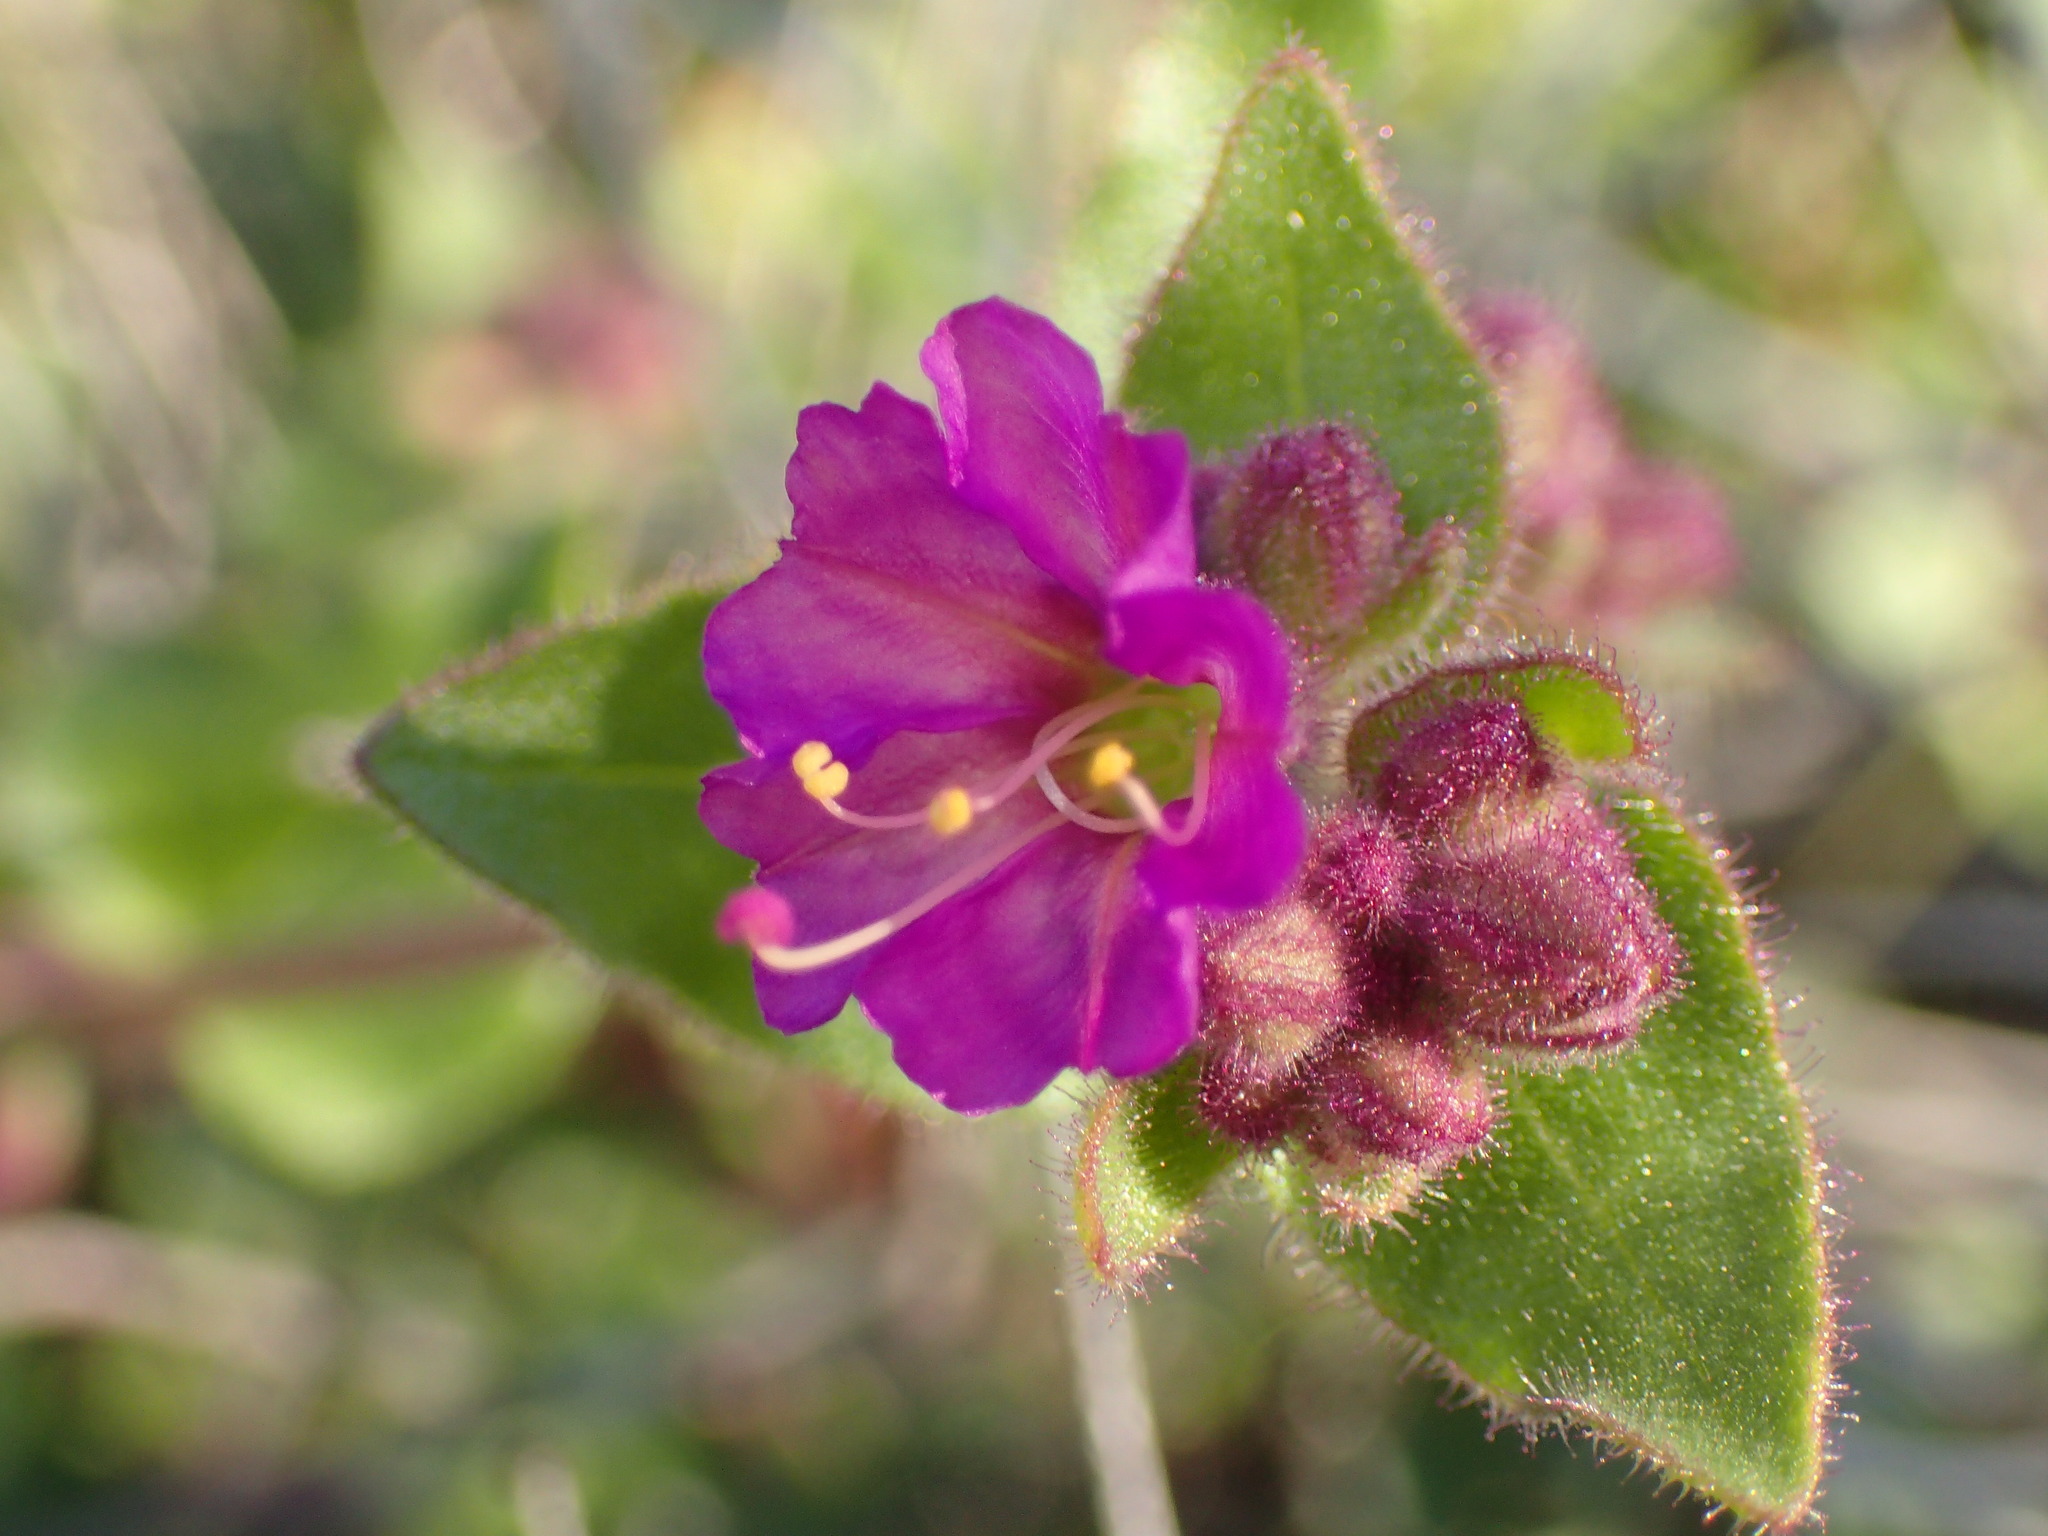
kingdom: Plantae
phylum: Tracheophyta
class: Magnoliopsida
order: Caryophyllales
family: Nyctaginaceae
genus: Mirabilis
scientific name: Mirabilis laevis
